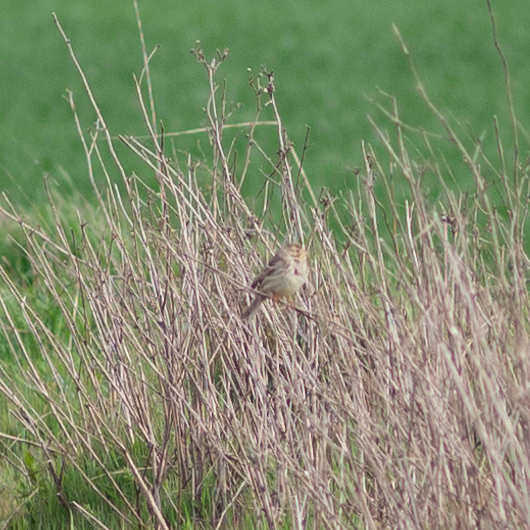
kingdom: Animalia
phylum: Chordata
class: Aves
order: Passeriformes
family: Emberizidae
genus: Emberiza
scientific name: Emberiza calandra
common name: Corn bunting
